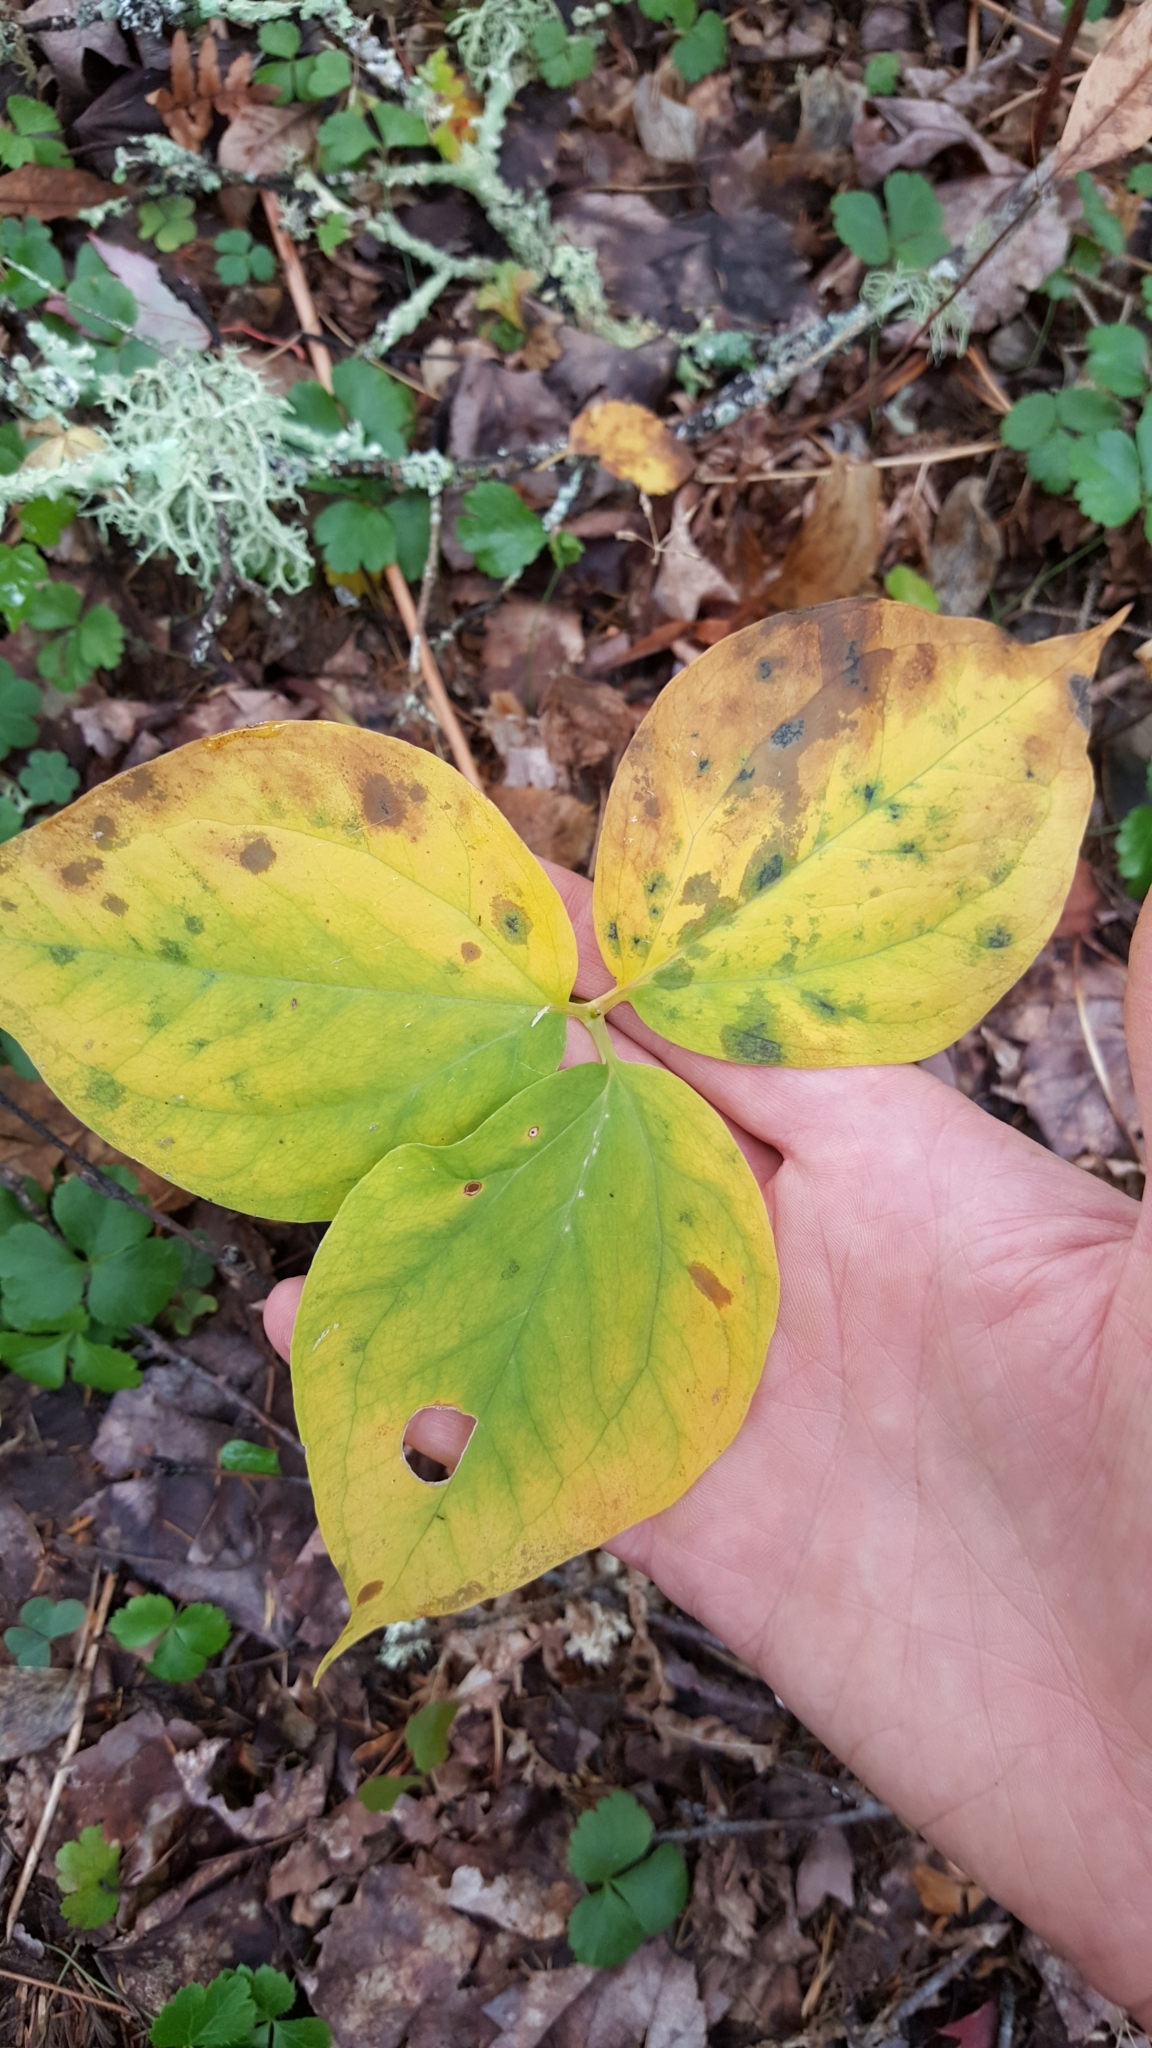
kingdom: Plantae
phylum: Tracheophyta
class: Liliopsida
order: Liliales
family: Melanthiaceae
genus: Trillium
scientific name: Trillium undulatum
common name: Paint trillium
